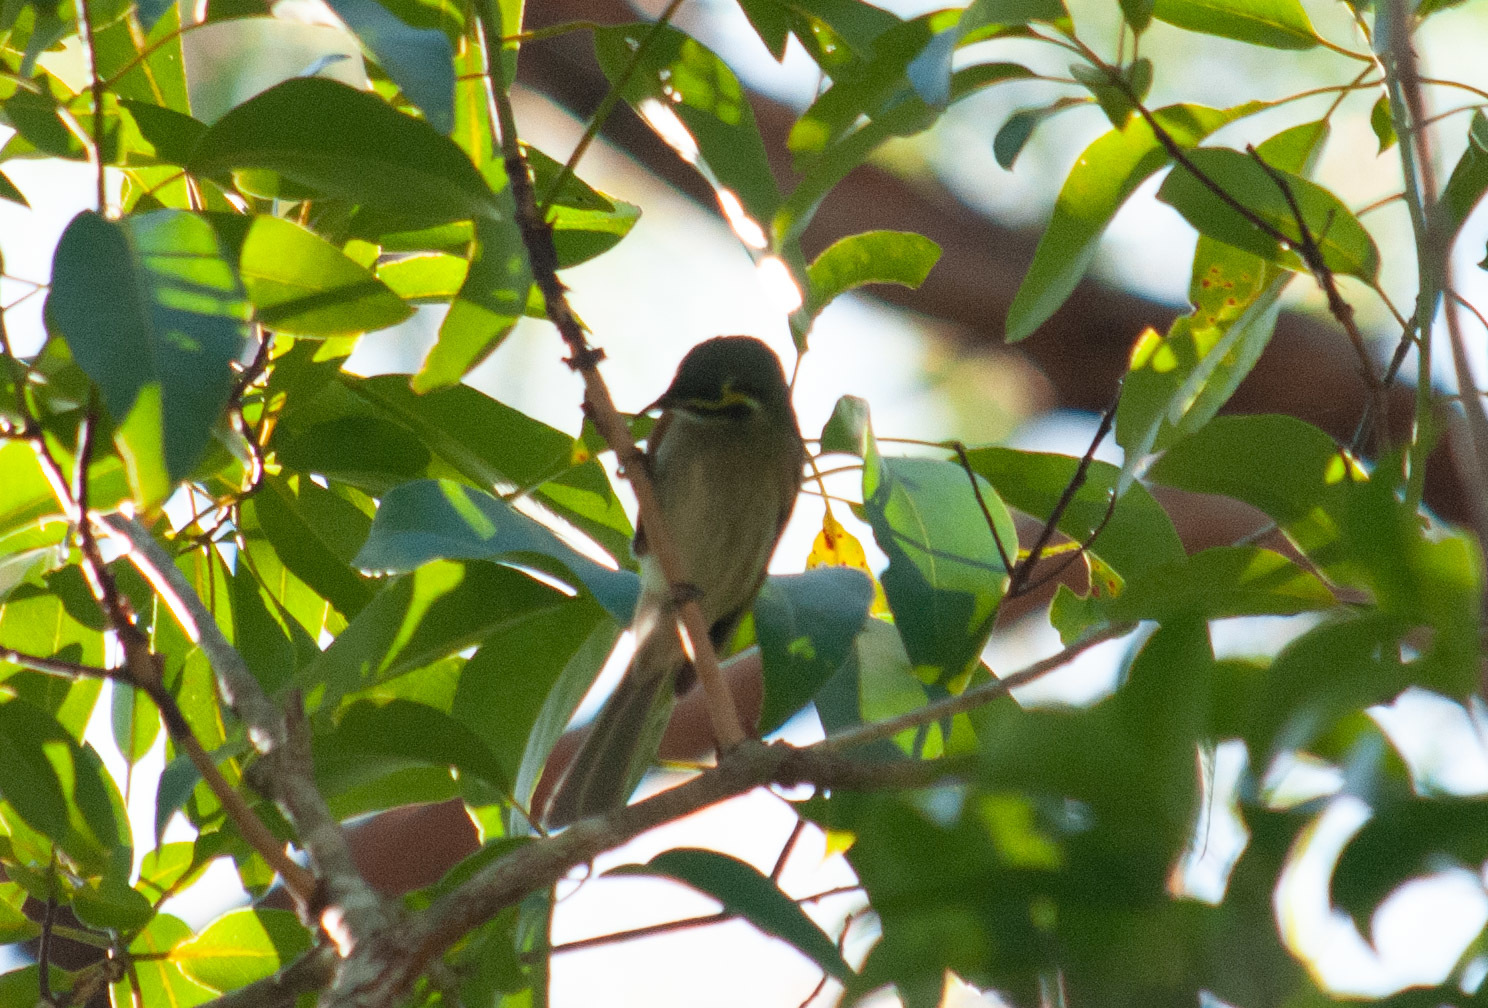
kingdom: Animalia
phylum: Chordata
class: Aves
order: Passeriformes
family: Meliphagidae
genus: Caligavis
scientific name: Caligavis chrysops
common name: Yellow-faced honeyeater
